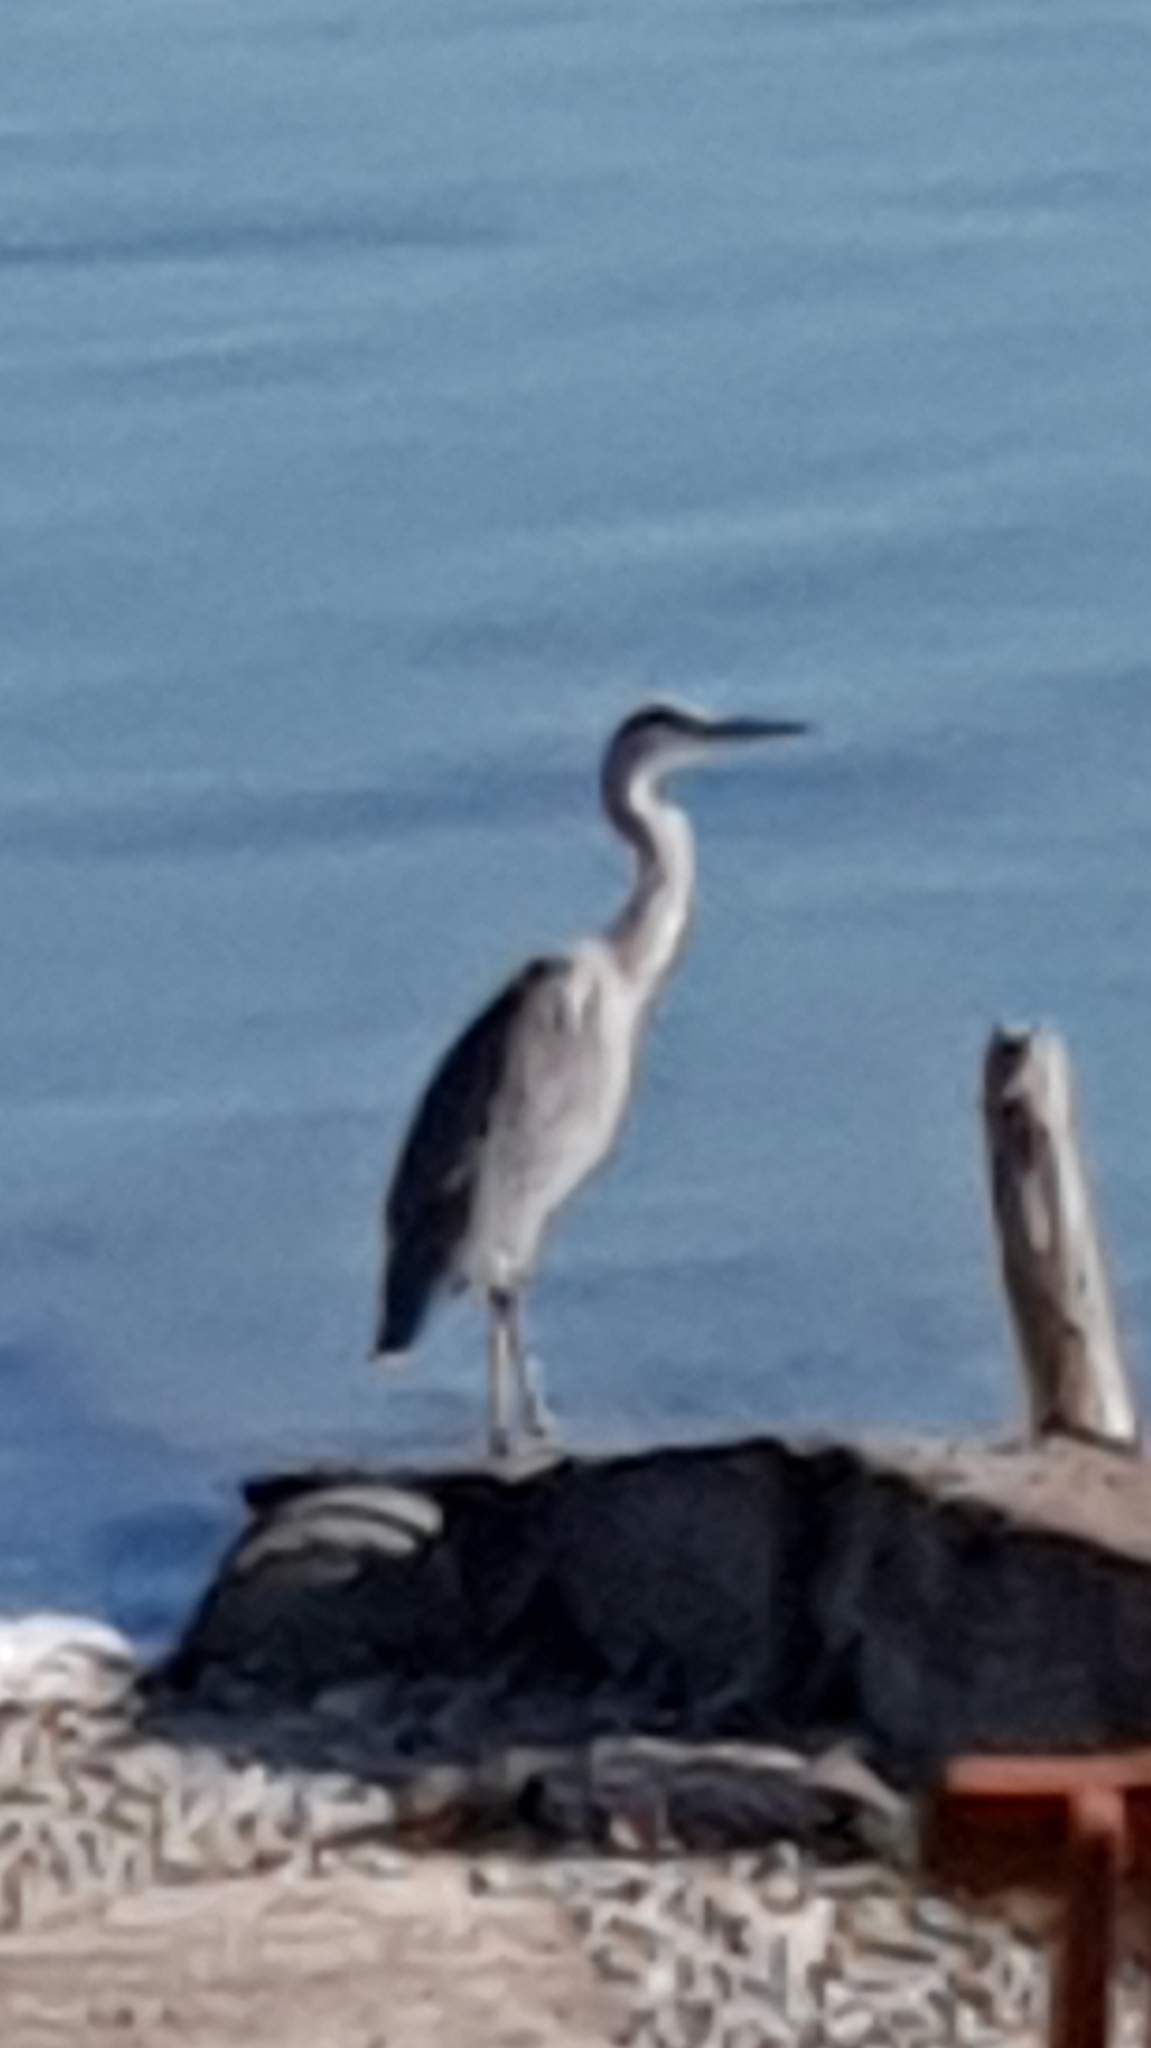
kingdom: Animalia
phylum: Chordata
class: Aves
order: Pelecaniformes
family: Ardeidae
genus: Ardea
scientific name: Ardea cinerea
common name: Grey heron
